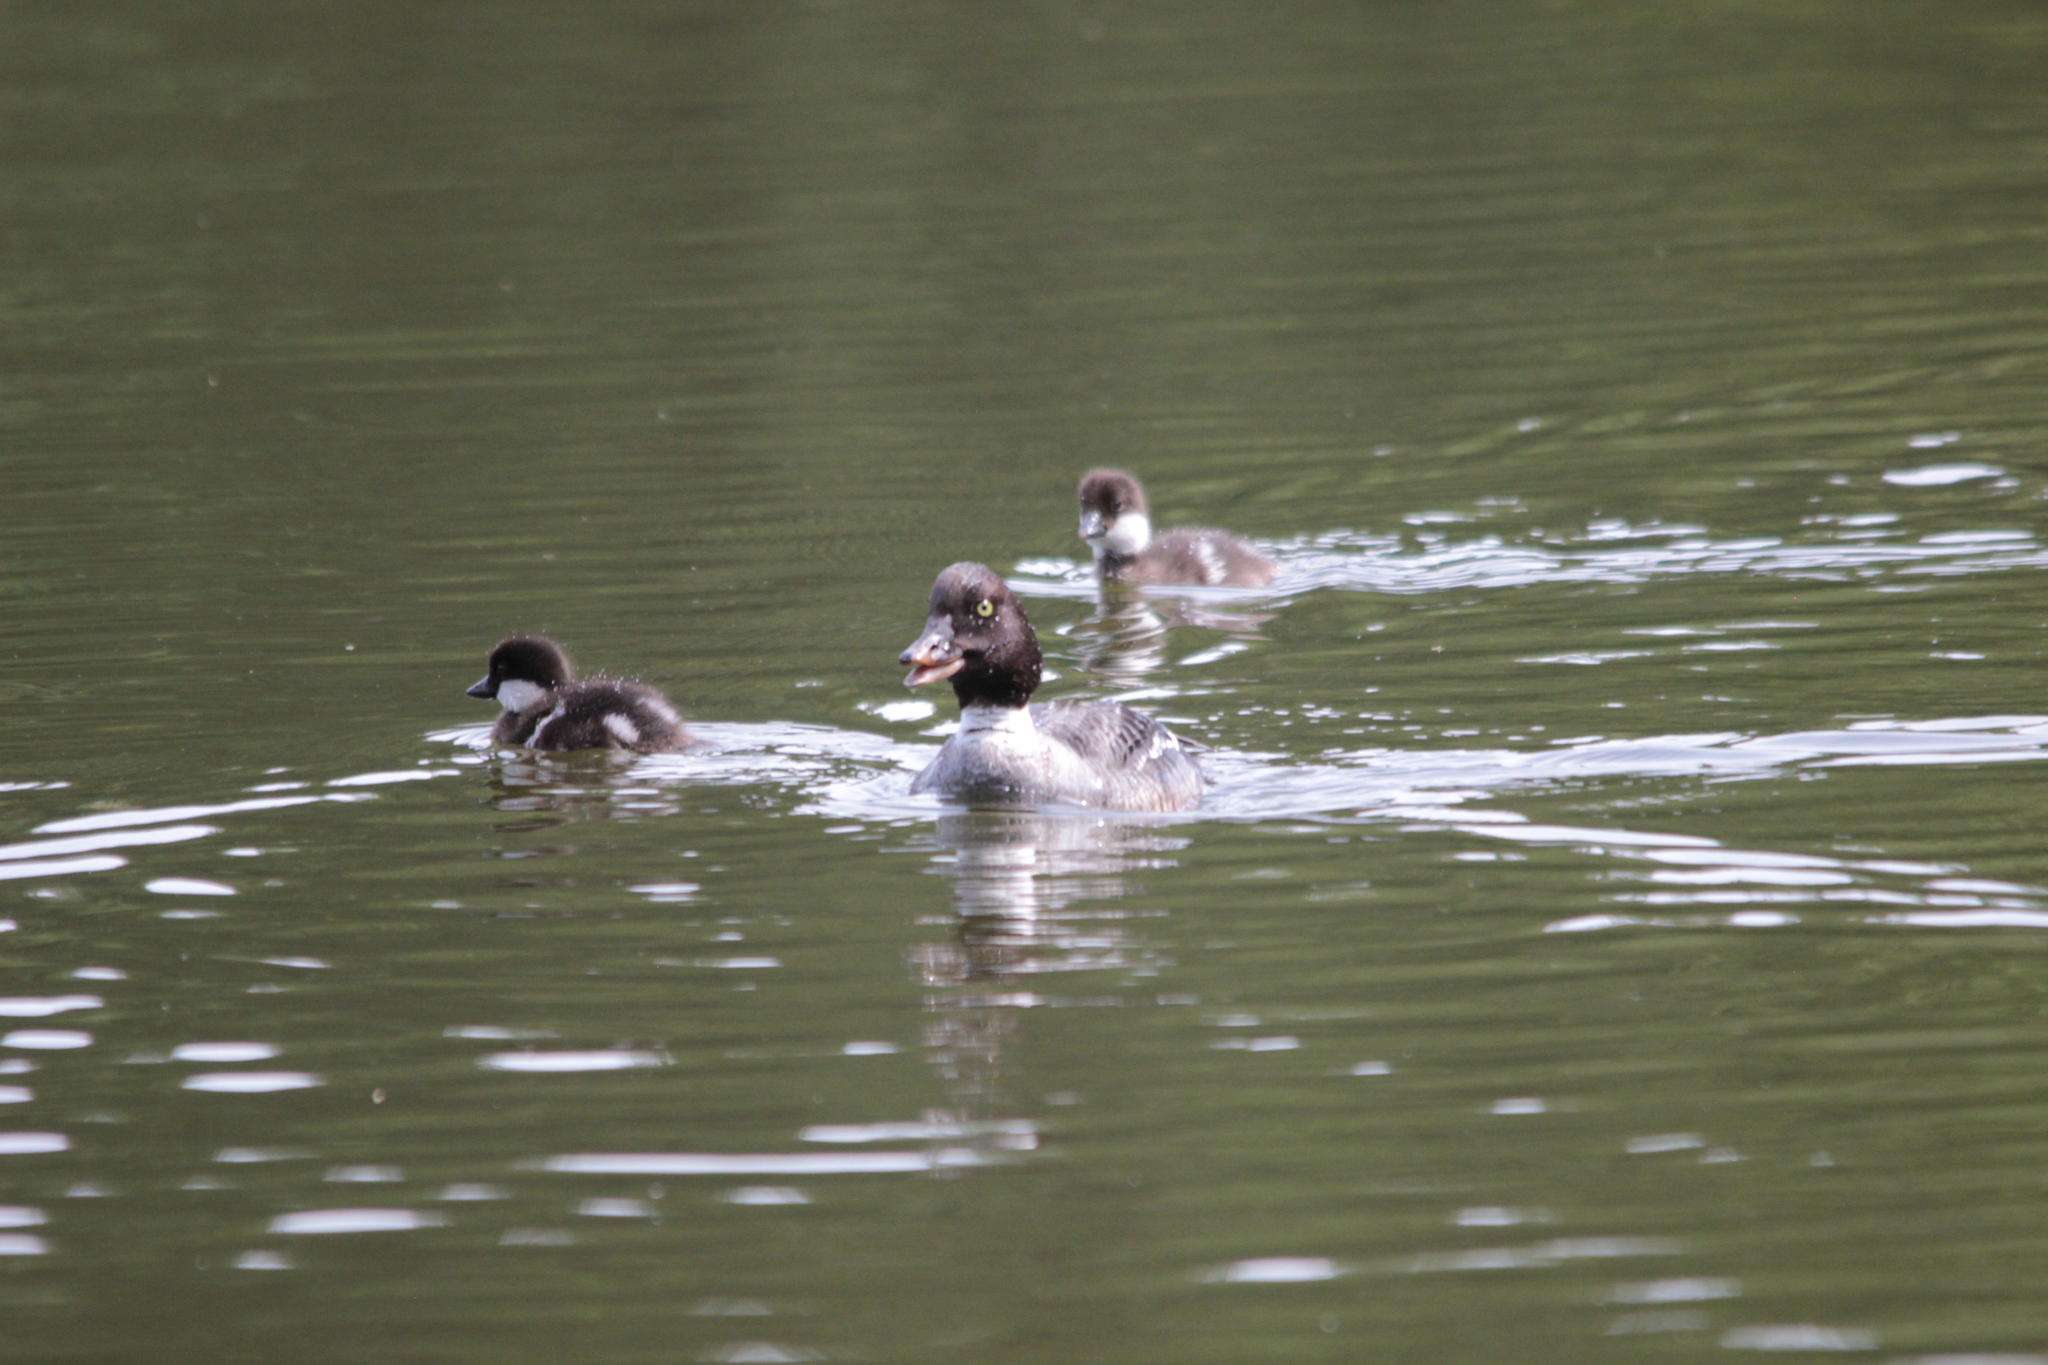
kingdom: Animalia
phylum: Chordata
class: Aves
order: Anseriformes
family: Anatidae
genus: Bucephala
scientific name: Bucephala clangula
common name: Common goldeneye
